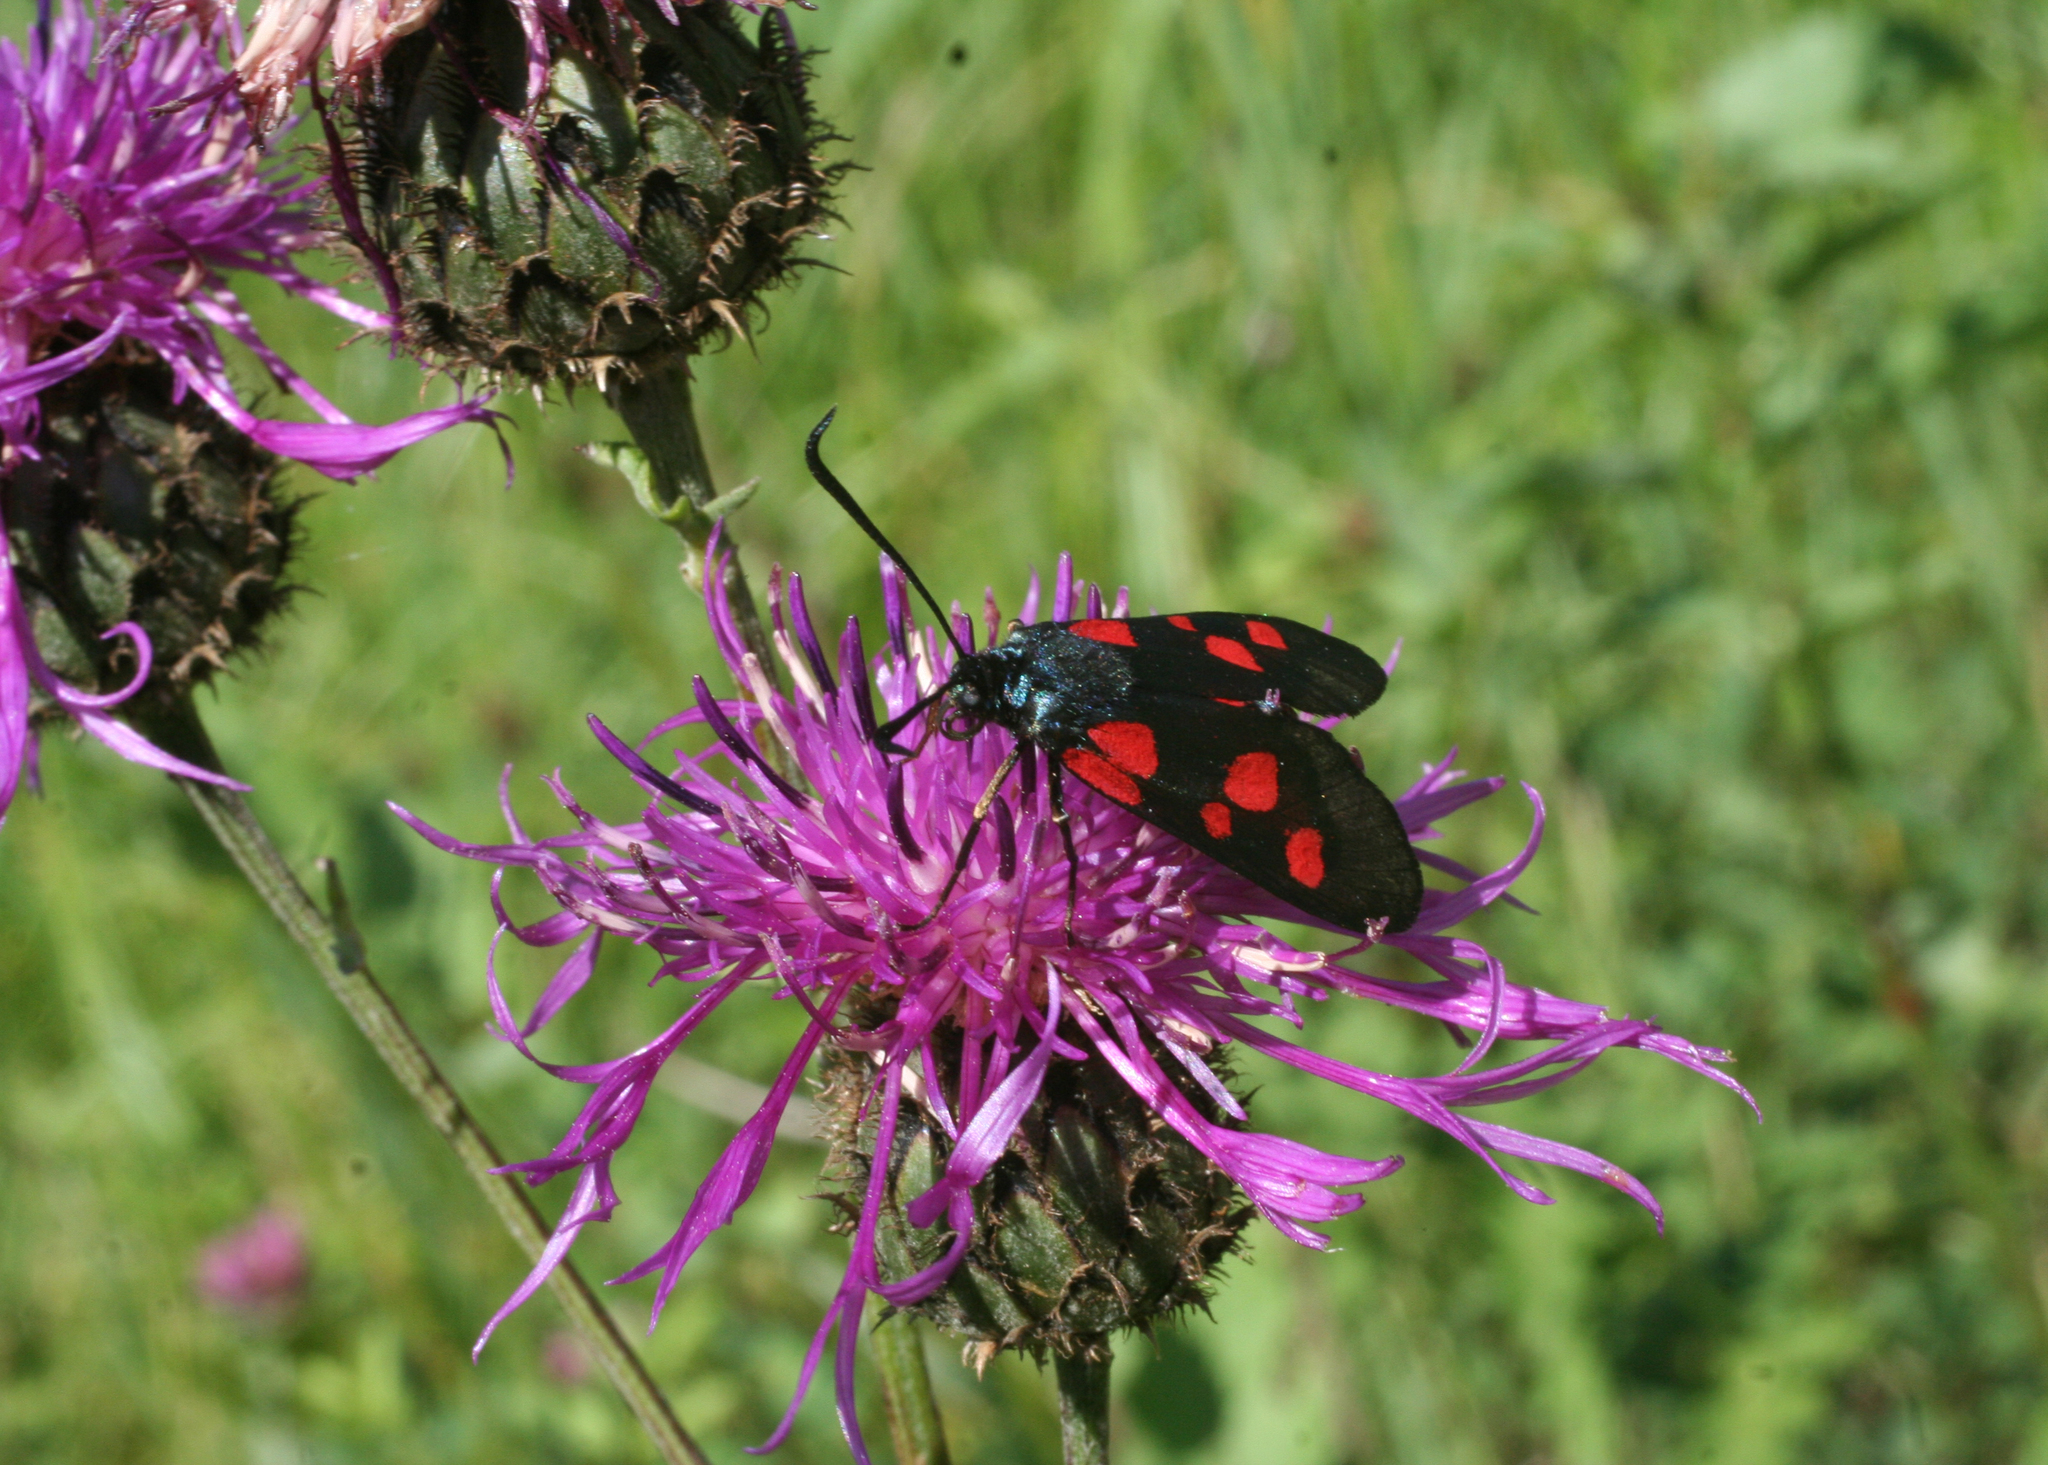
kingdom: Plantae
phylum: Tracheophyta
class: Magnoliopsida
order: Asterales
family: Asteraceae
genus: Centaurea
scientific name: Centaurea scabiosa
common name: Greater knapweed
